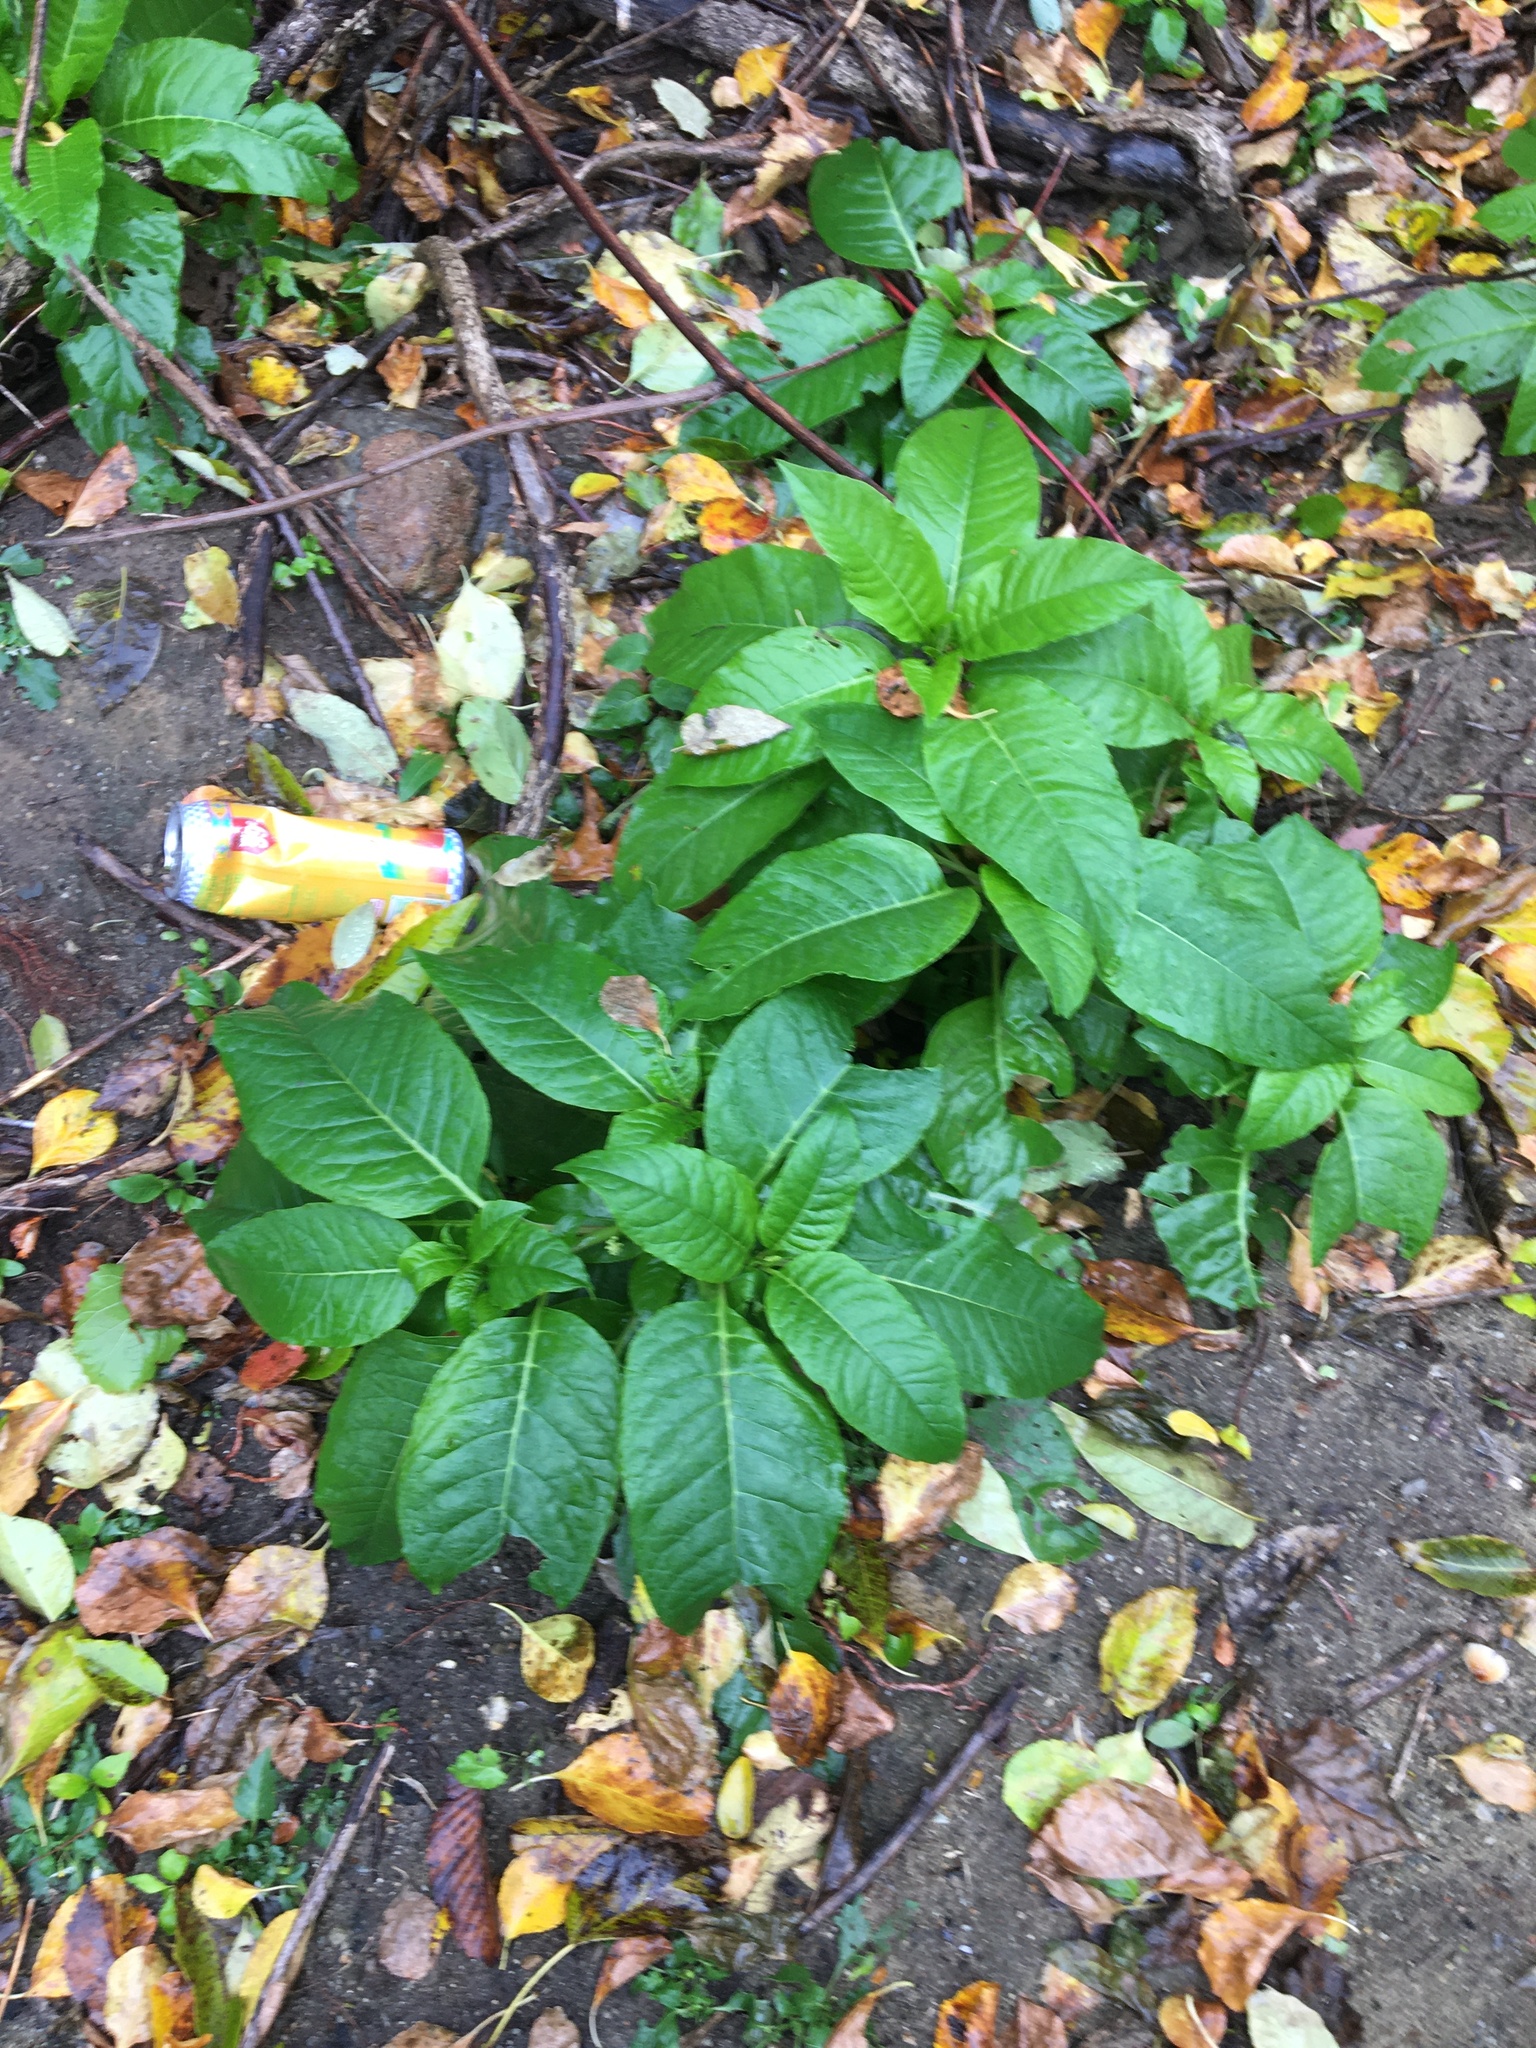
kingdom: Plantae
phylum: Tracheophyta
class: Magnoliopsida
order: Caryophyllales
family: Phytolaccaceae
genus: Phytolacca
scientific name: Phytolacca americana
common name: American pokeweed
